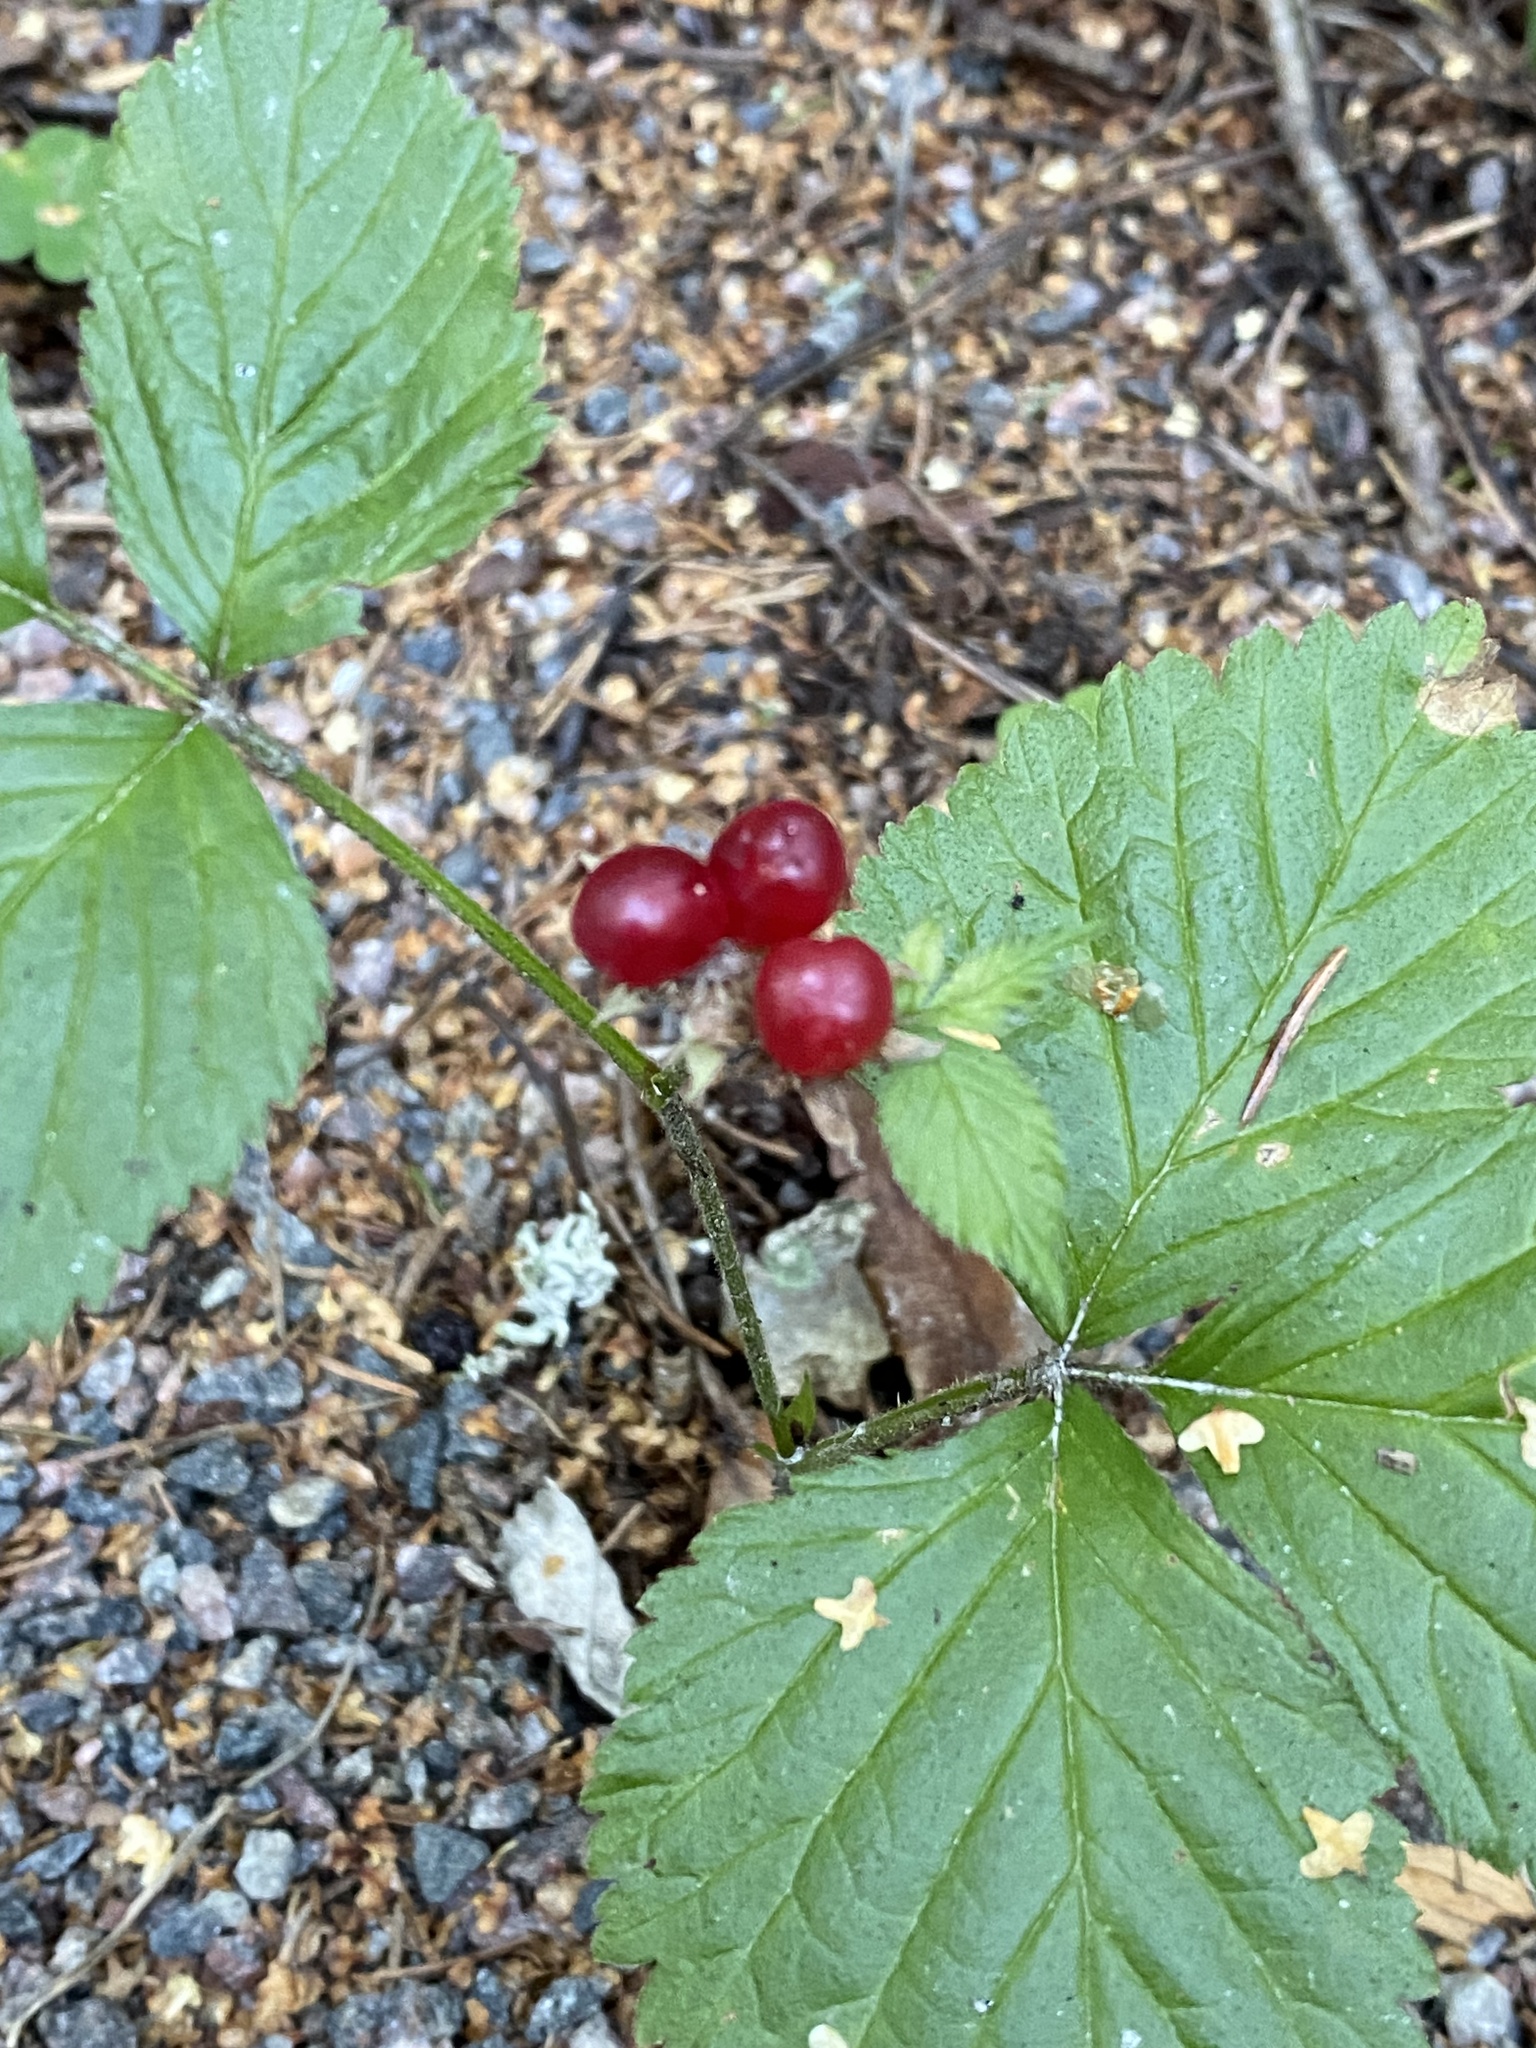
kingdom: Plantae
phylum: Tracheophyta
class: Magnoliopsida
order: Rosales
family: Rosaceae
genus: Rubus
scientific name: Rubus saxatilis
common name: Stone bramble
